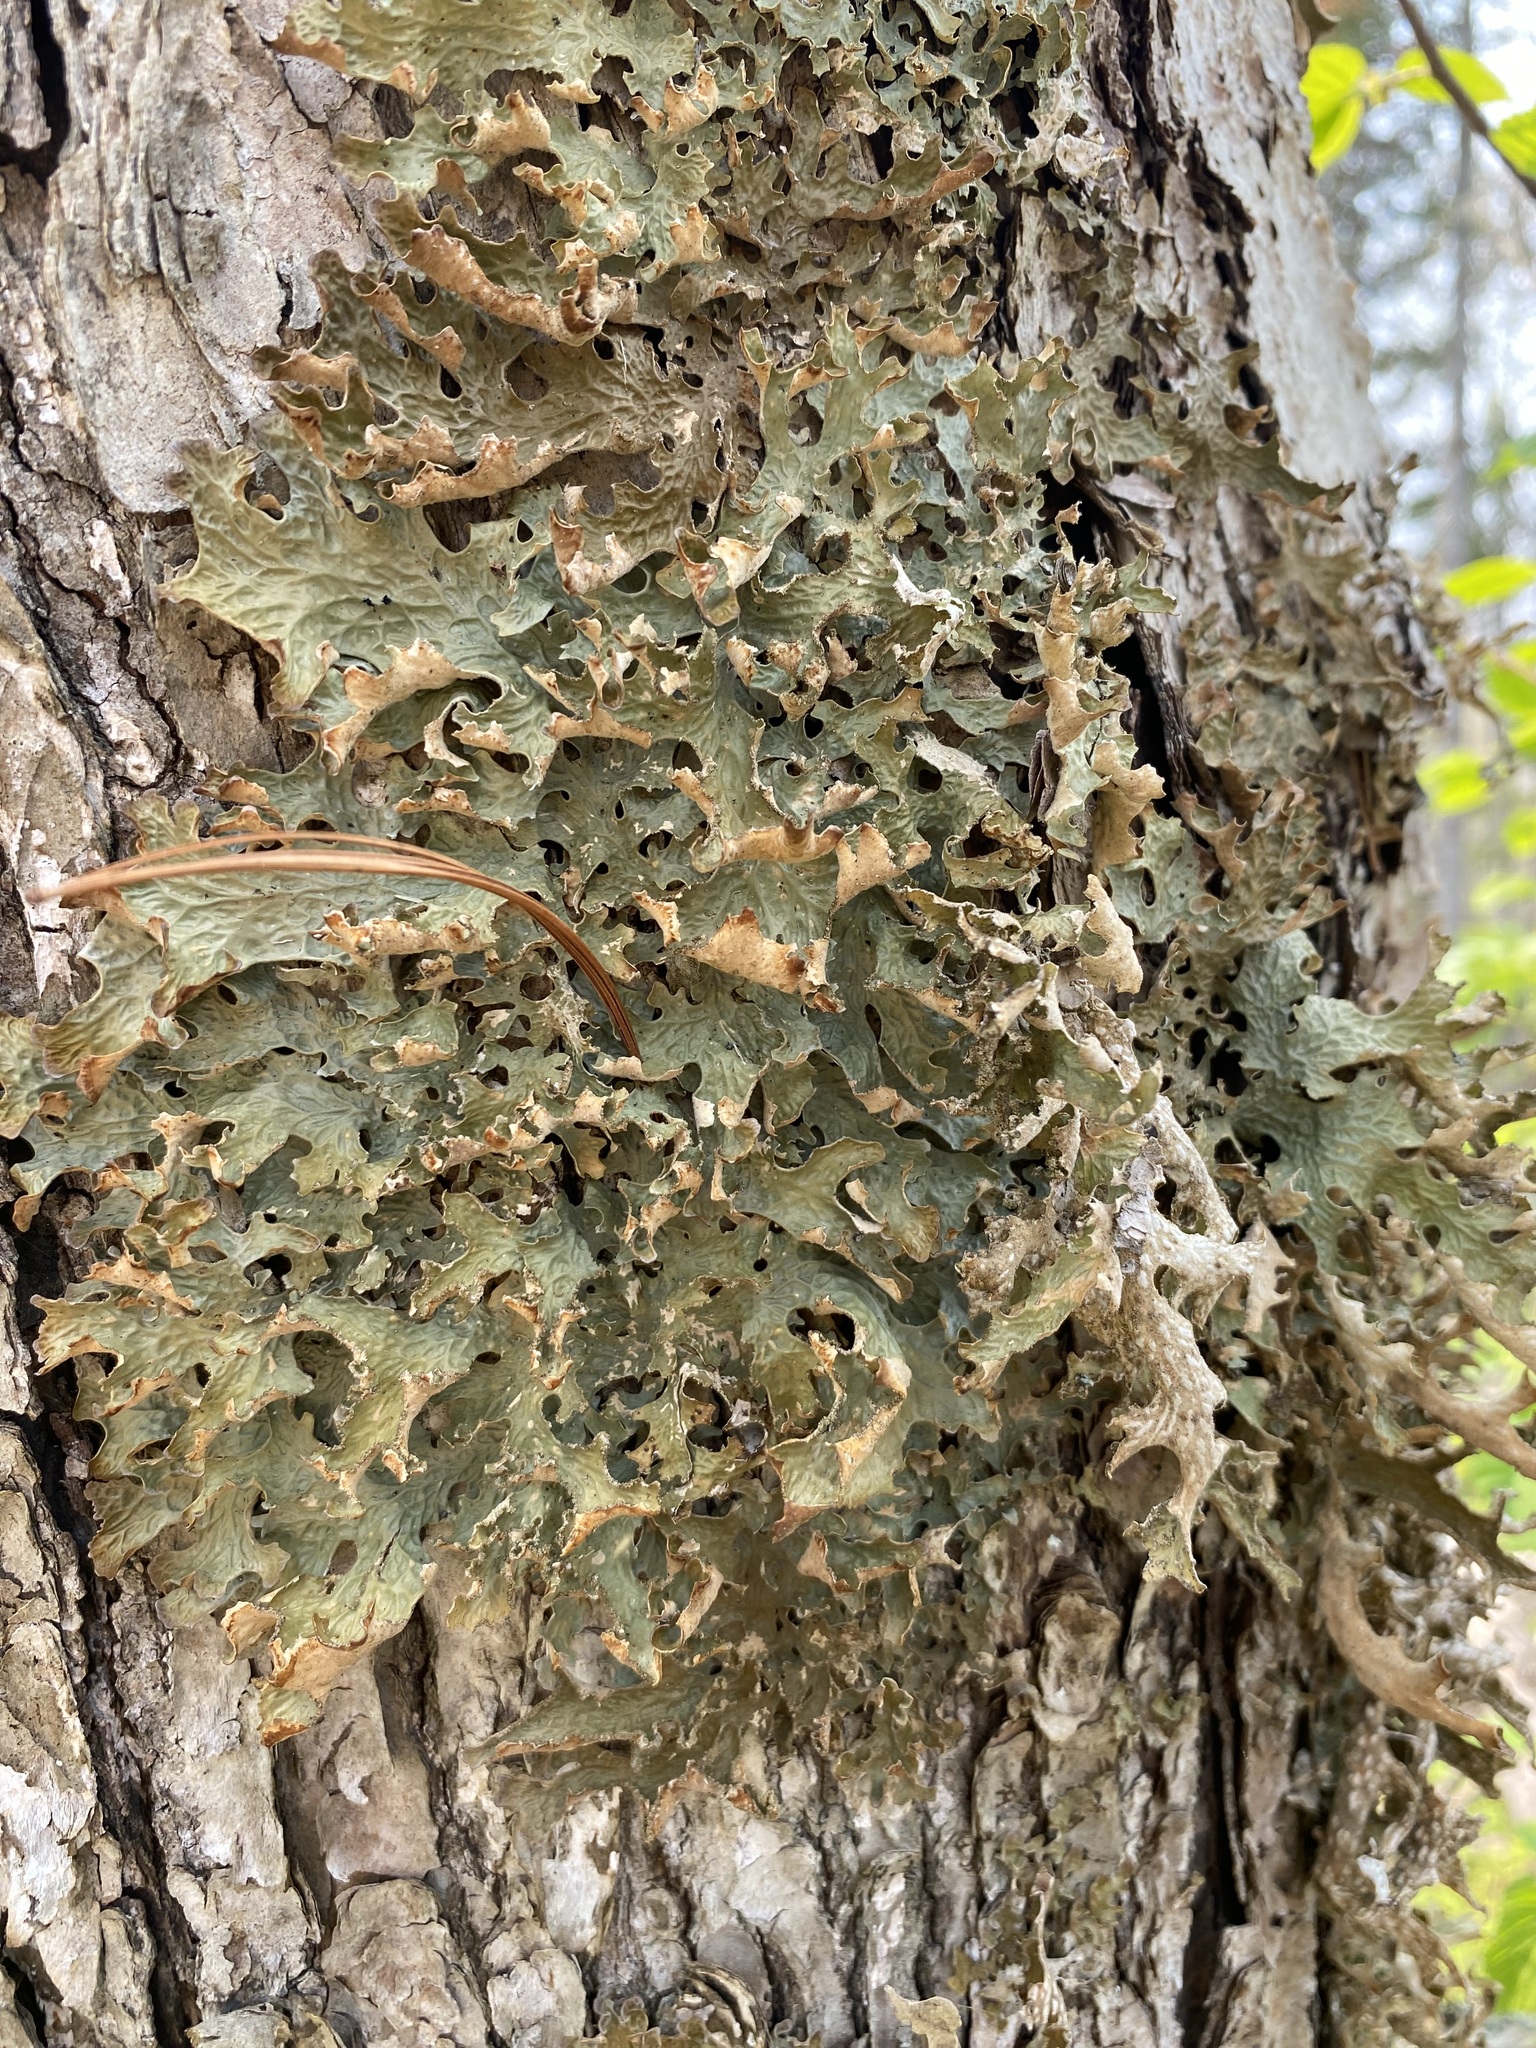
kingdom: Fungi
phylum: Ascomycota
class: Lecanoromycetes
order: Peltigerales
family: Lobariaceae
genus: Lobaria
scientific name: Lobaria pulmonaria
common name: Lungwort
